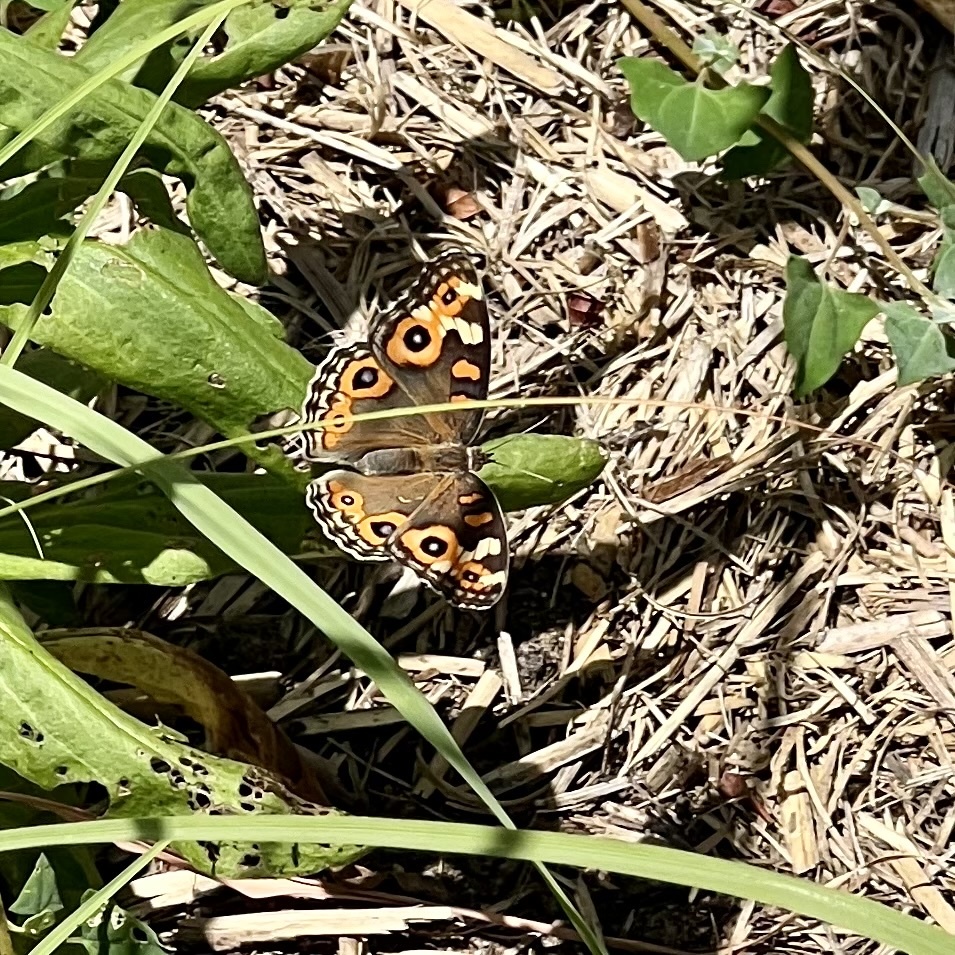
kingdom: Animalia
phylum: Arthropoda
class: Insecta
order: Lepidoptera
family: Nymphalidae
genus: Junonia
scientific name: Junonia villida
